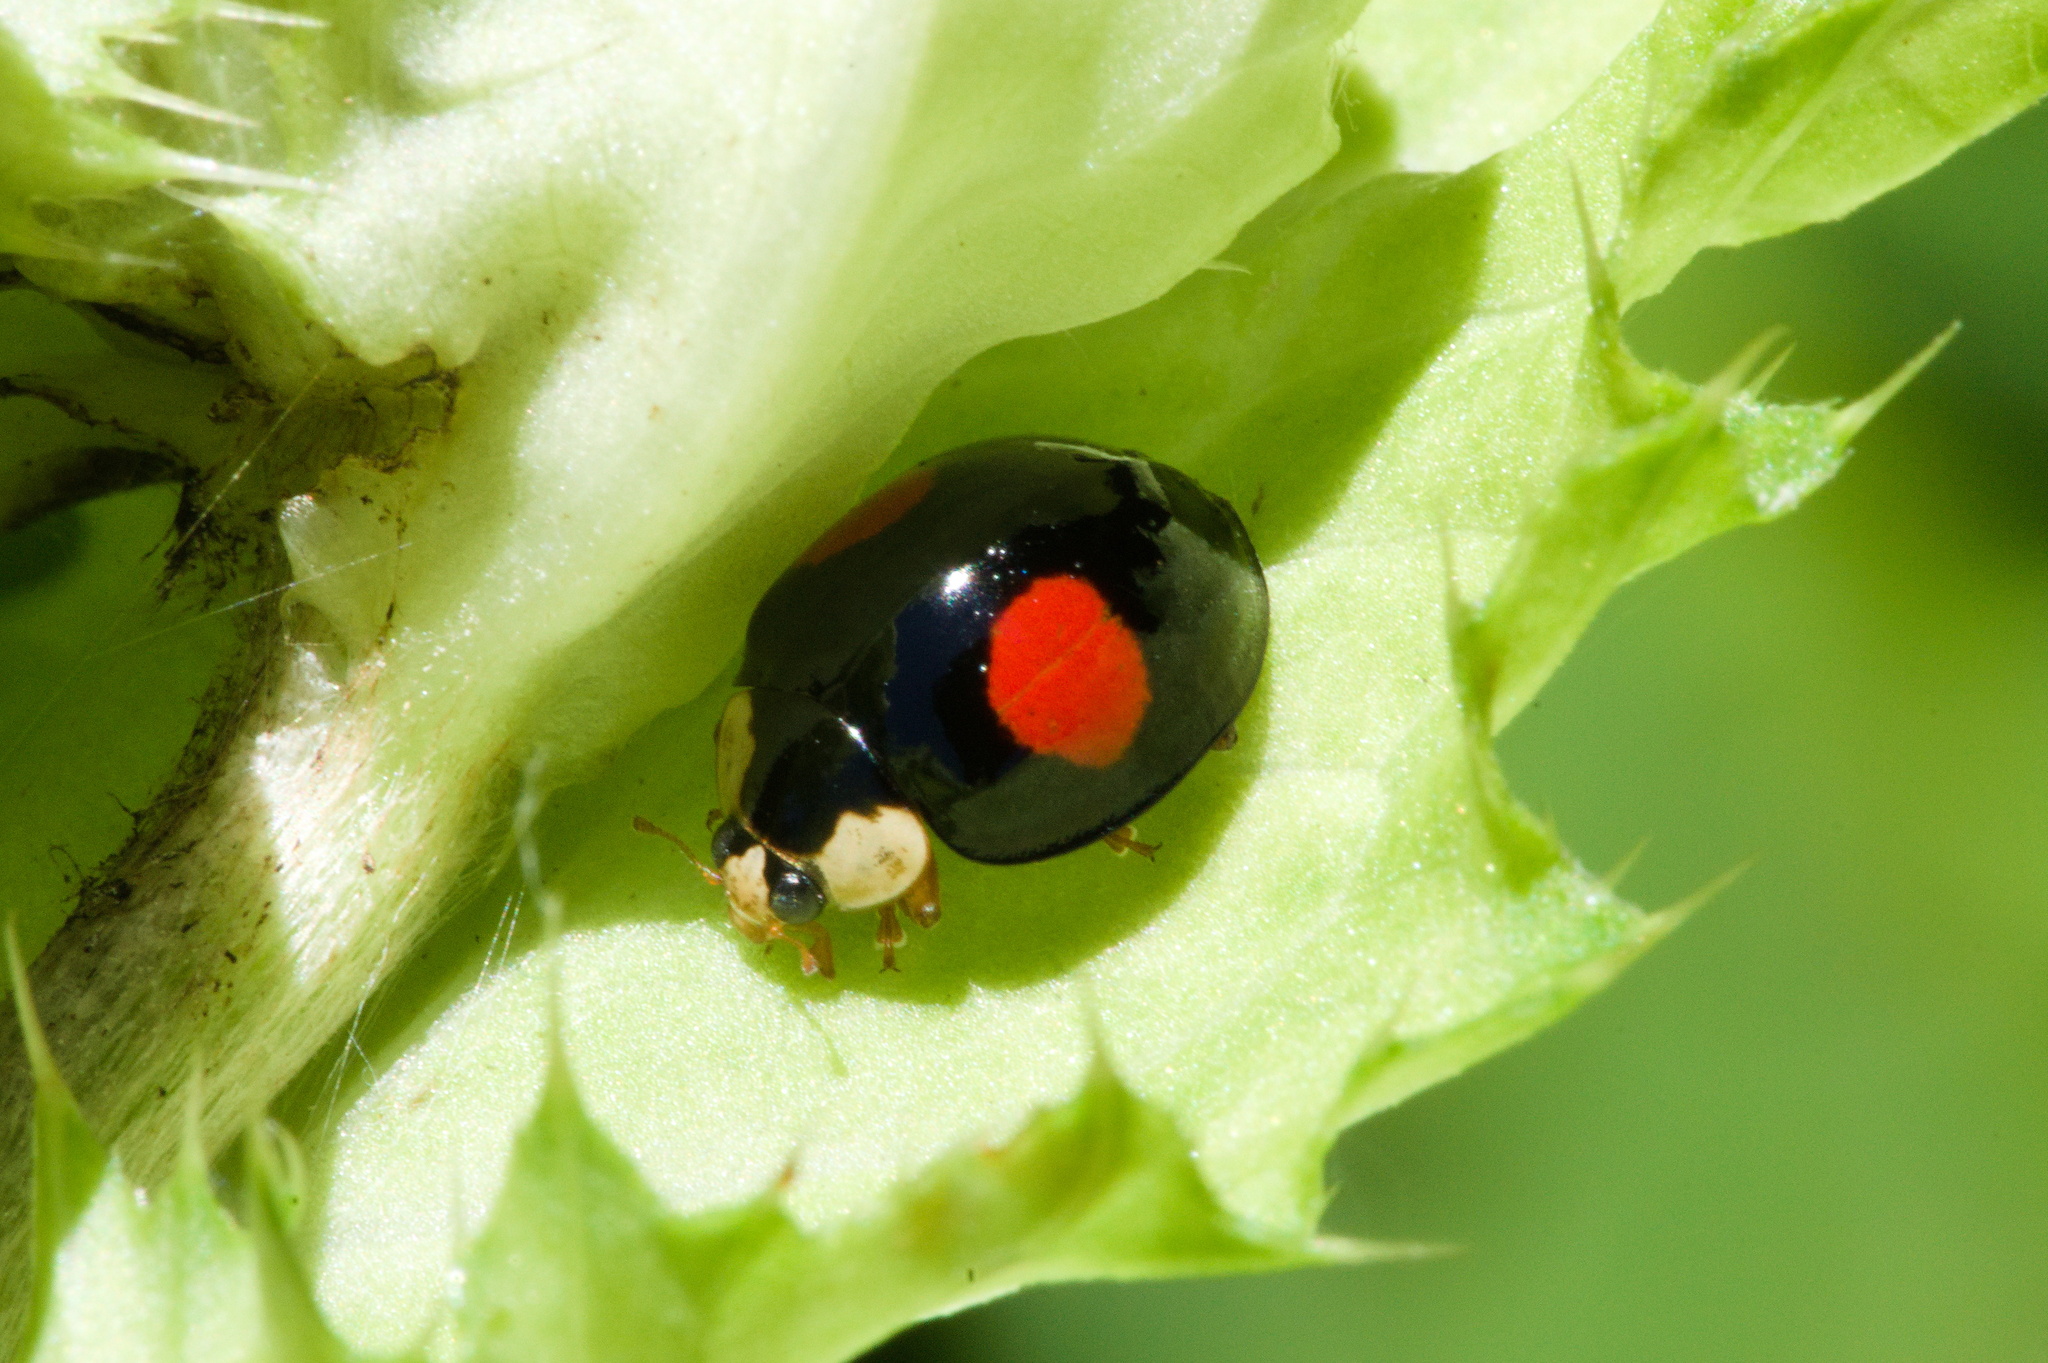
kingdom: Animalia
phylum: Arthropoda
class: Insecta
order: Coleoptera
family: Coccinellidae
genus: Harmonia
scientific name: Harmonia axyridis
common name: Harlequin ladybird
